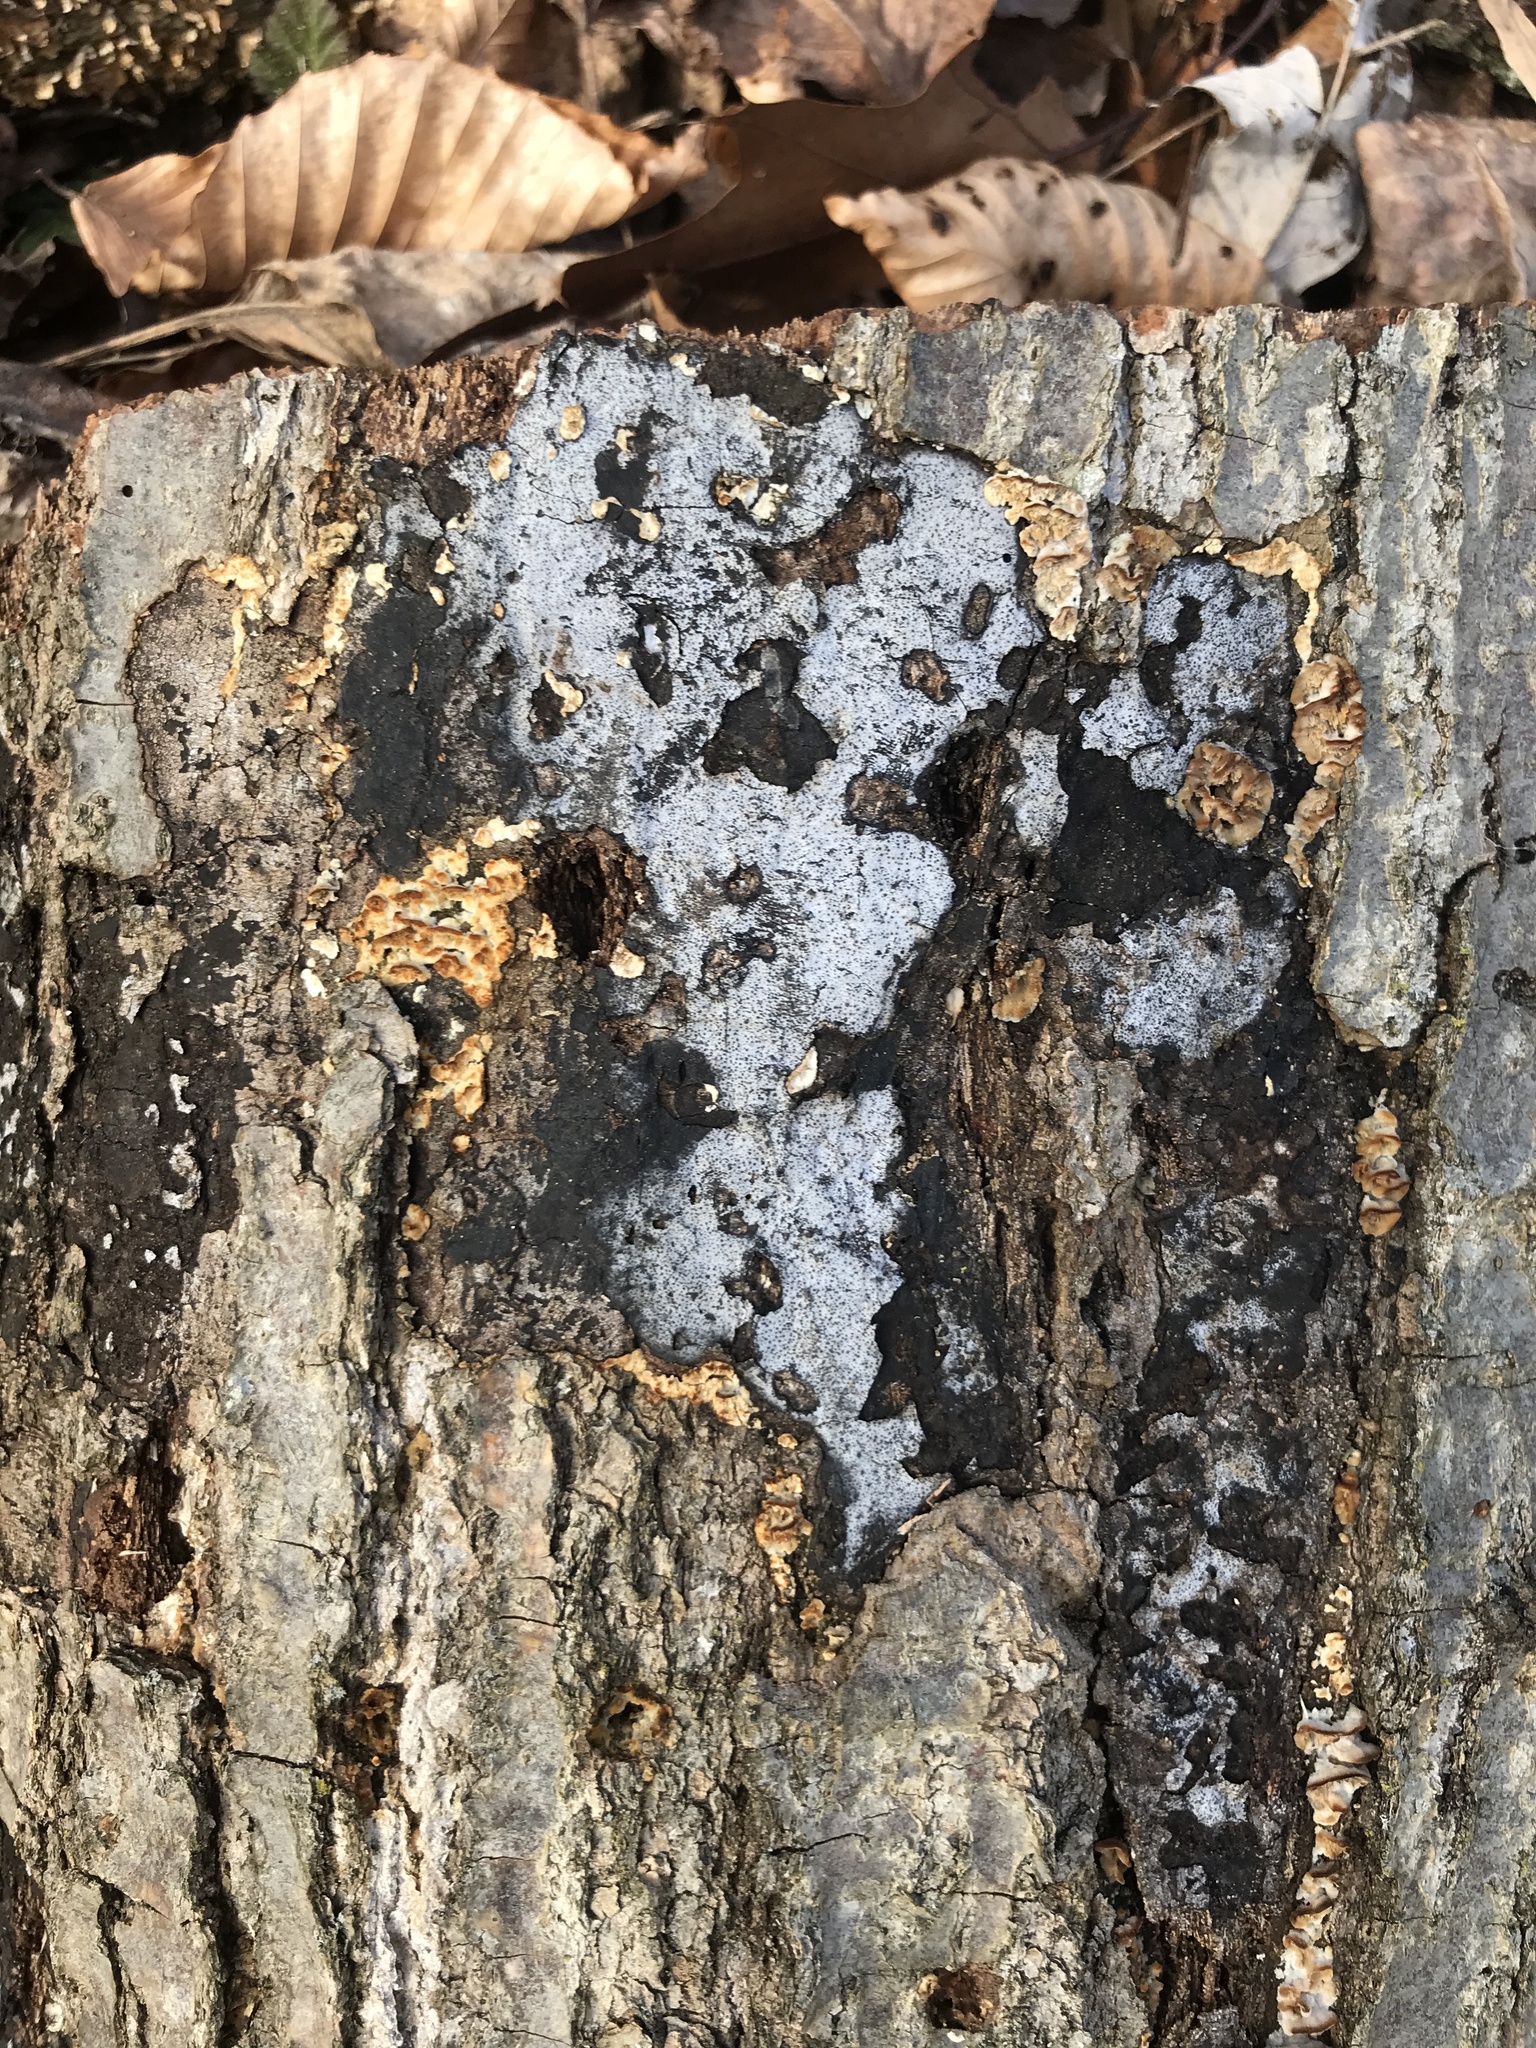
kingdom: Fungi
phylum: Ascomycota
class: Sordariomycetes
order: Xylariales
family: Graphostromataceae
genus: Biscogniauxia
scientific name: Biscogniauxia atropunctata
